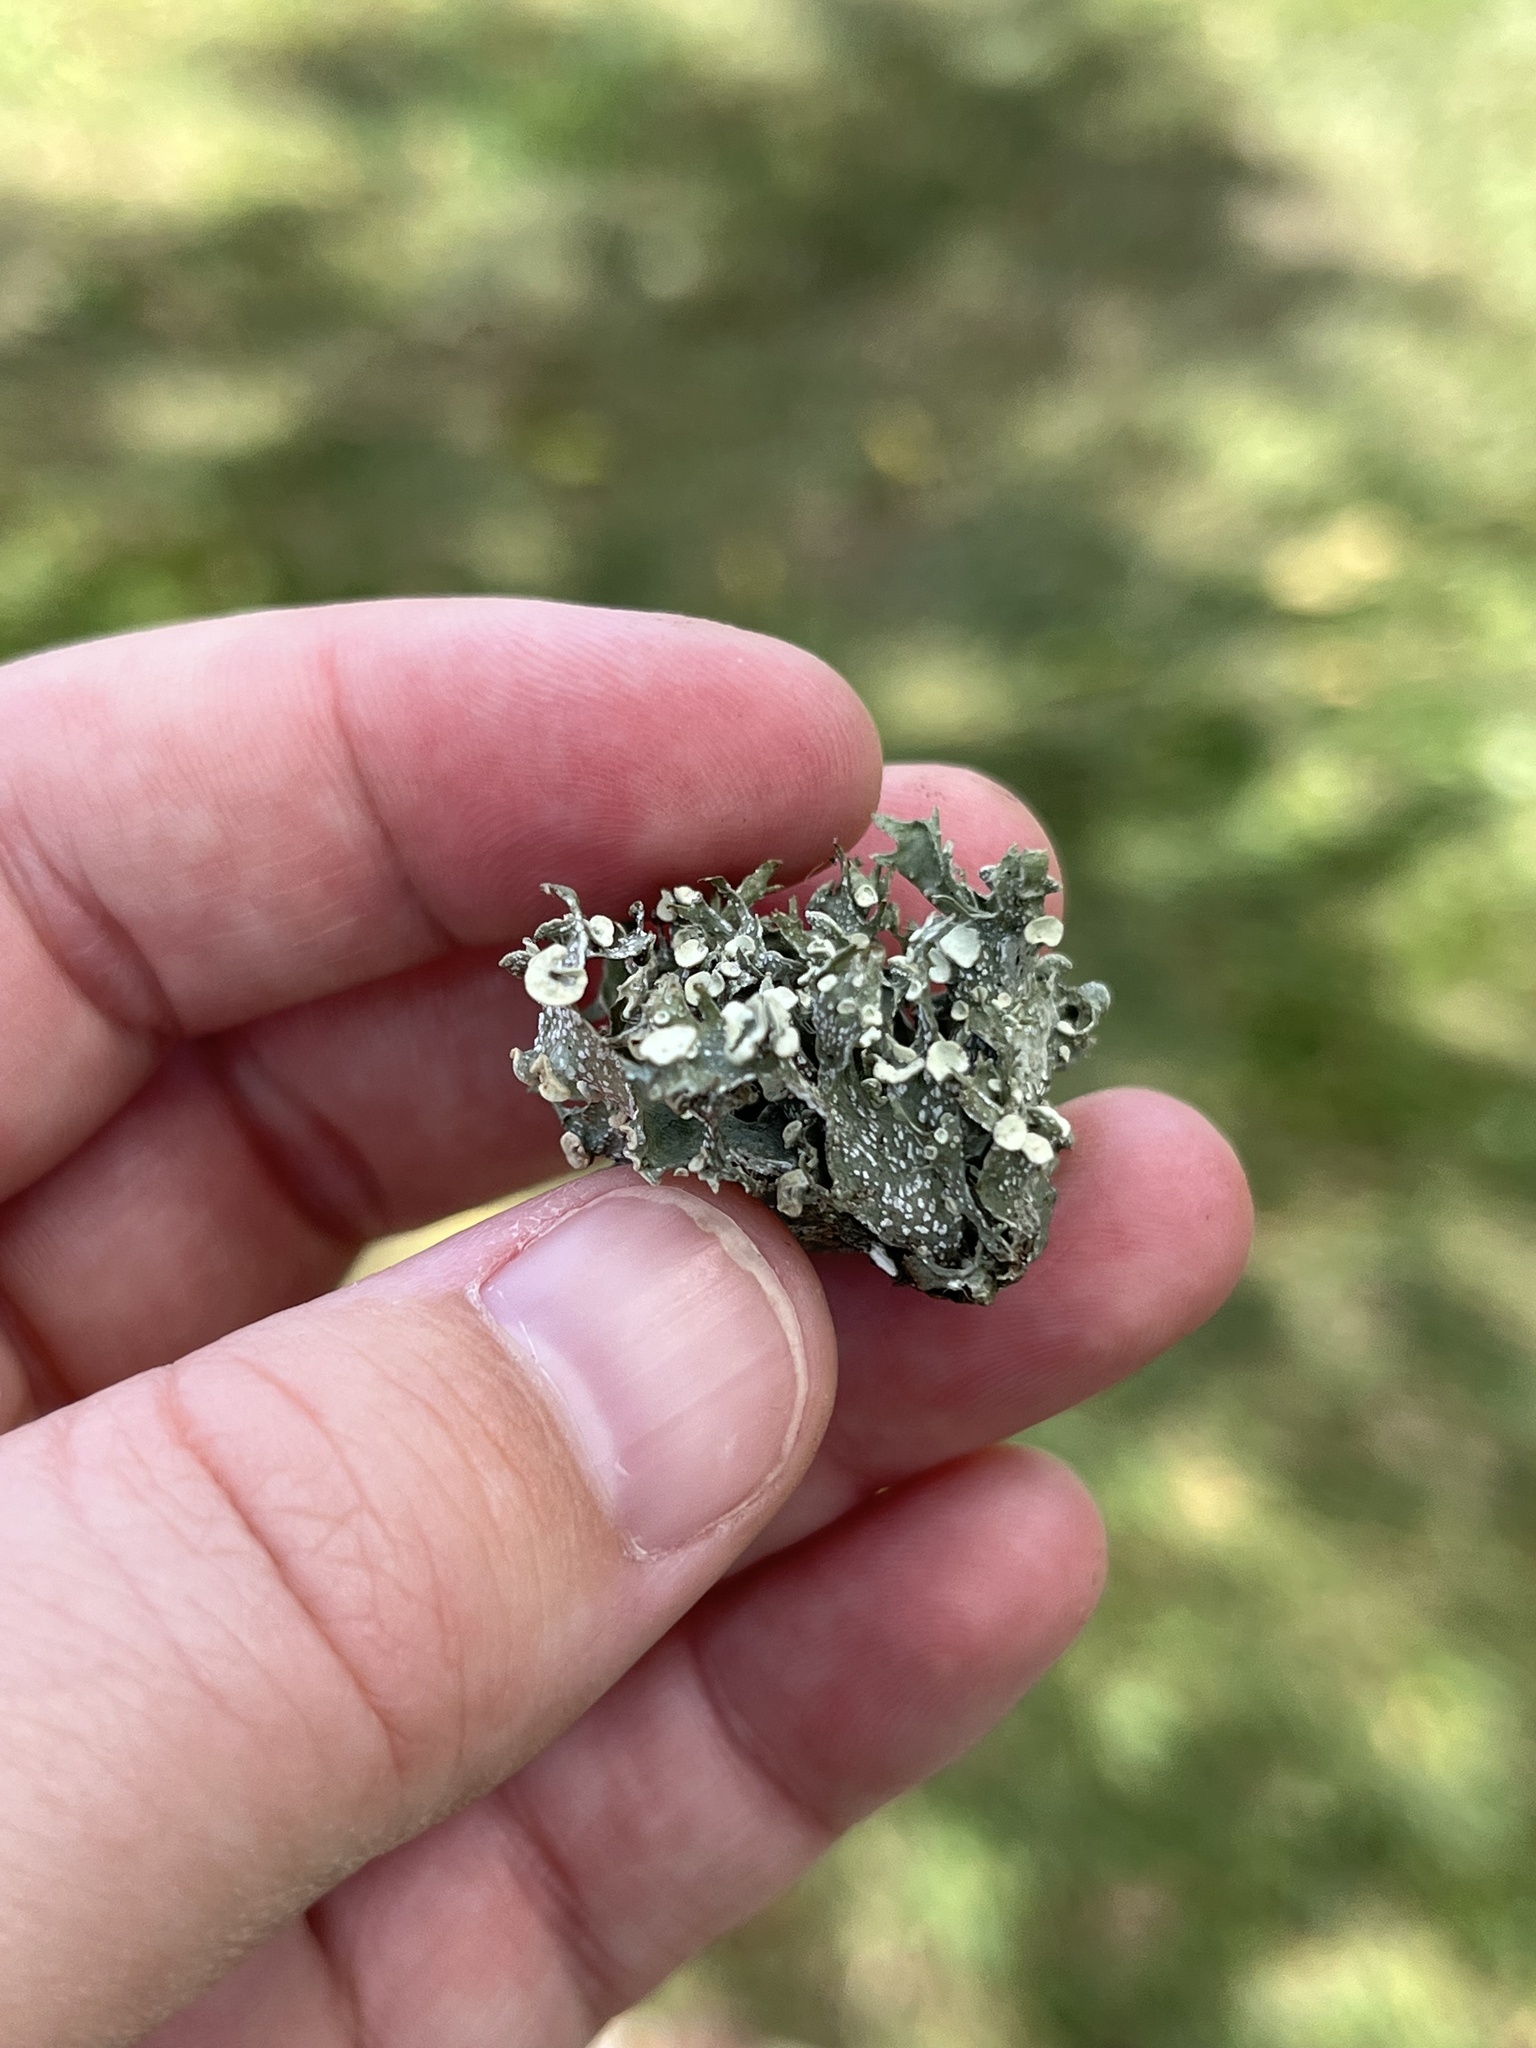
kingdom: Fungi
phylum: Ascomycota
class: Lecanoromycetes
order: Lecanorales
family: Ramalinaceae
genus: Ramalina
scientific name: Ramalina americana
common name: Sinewed bush lichen
